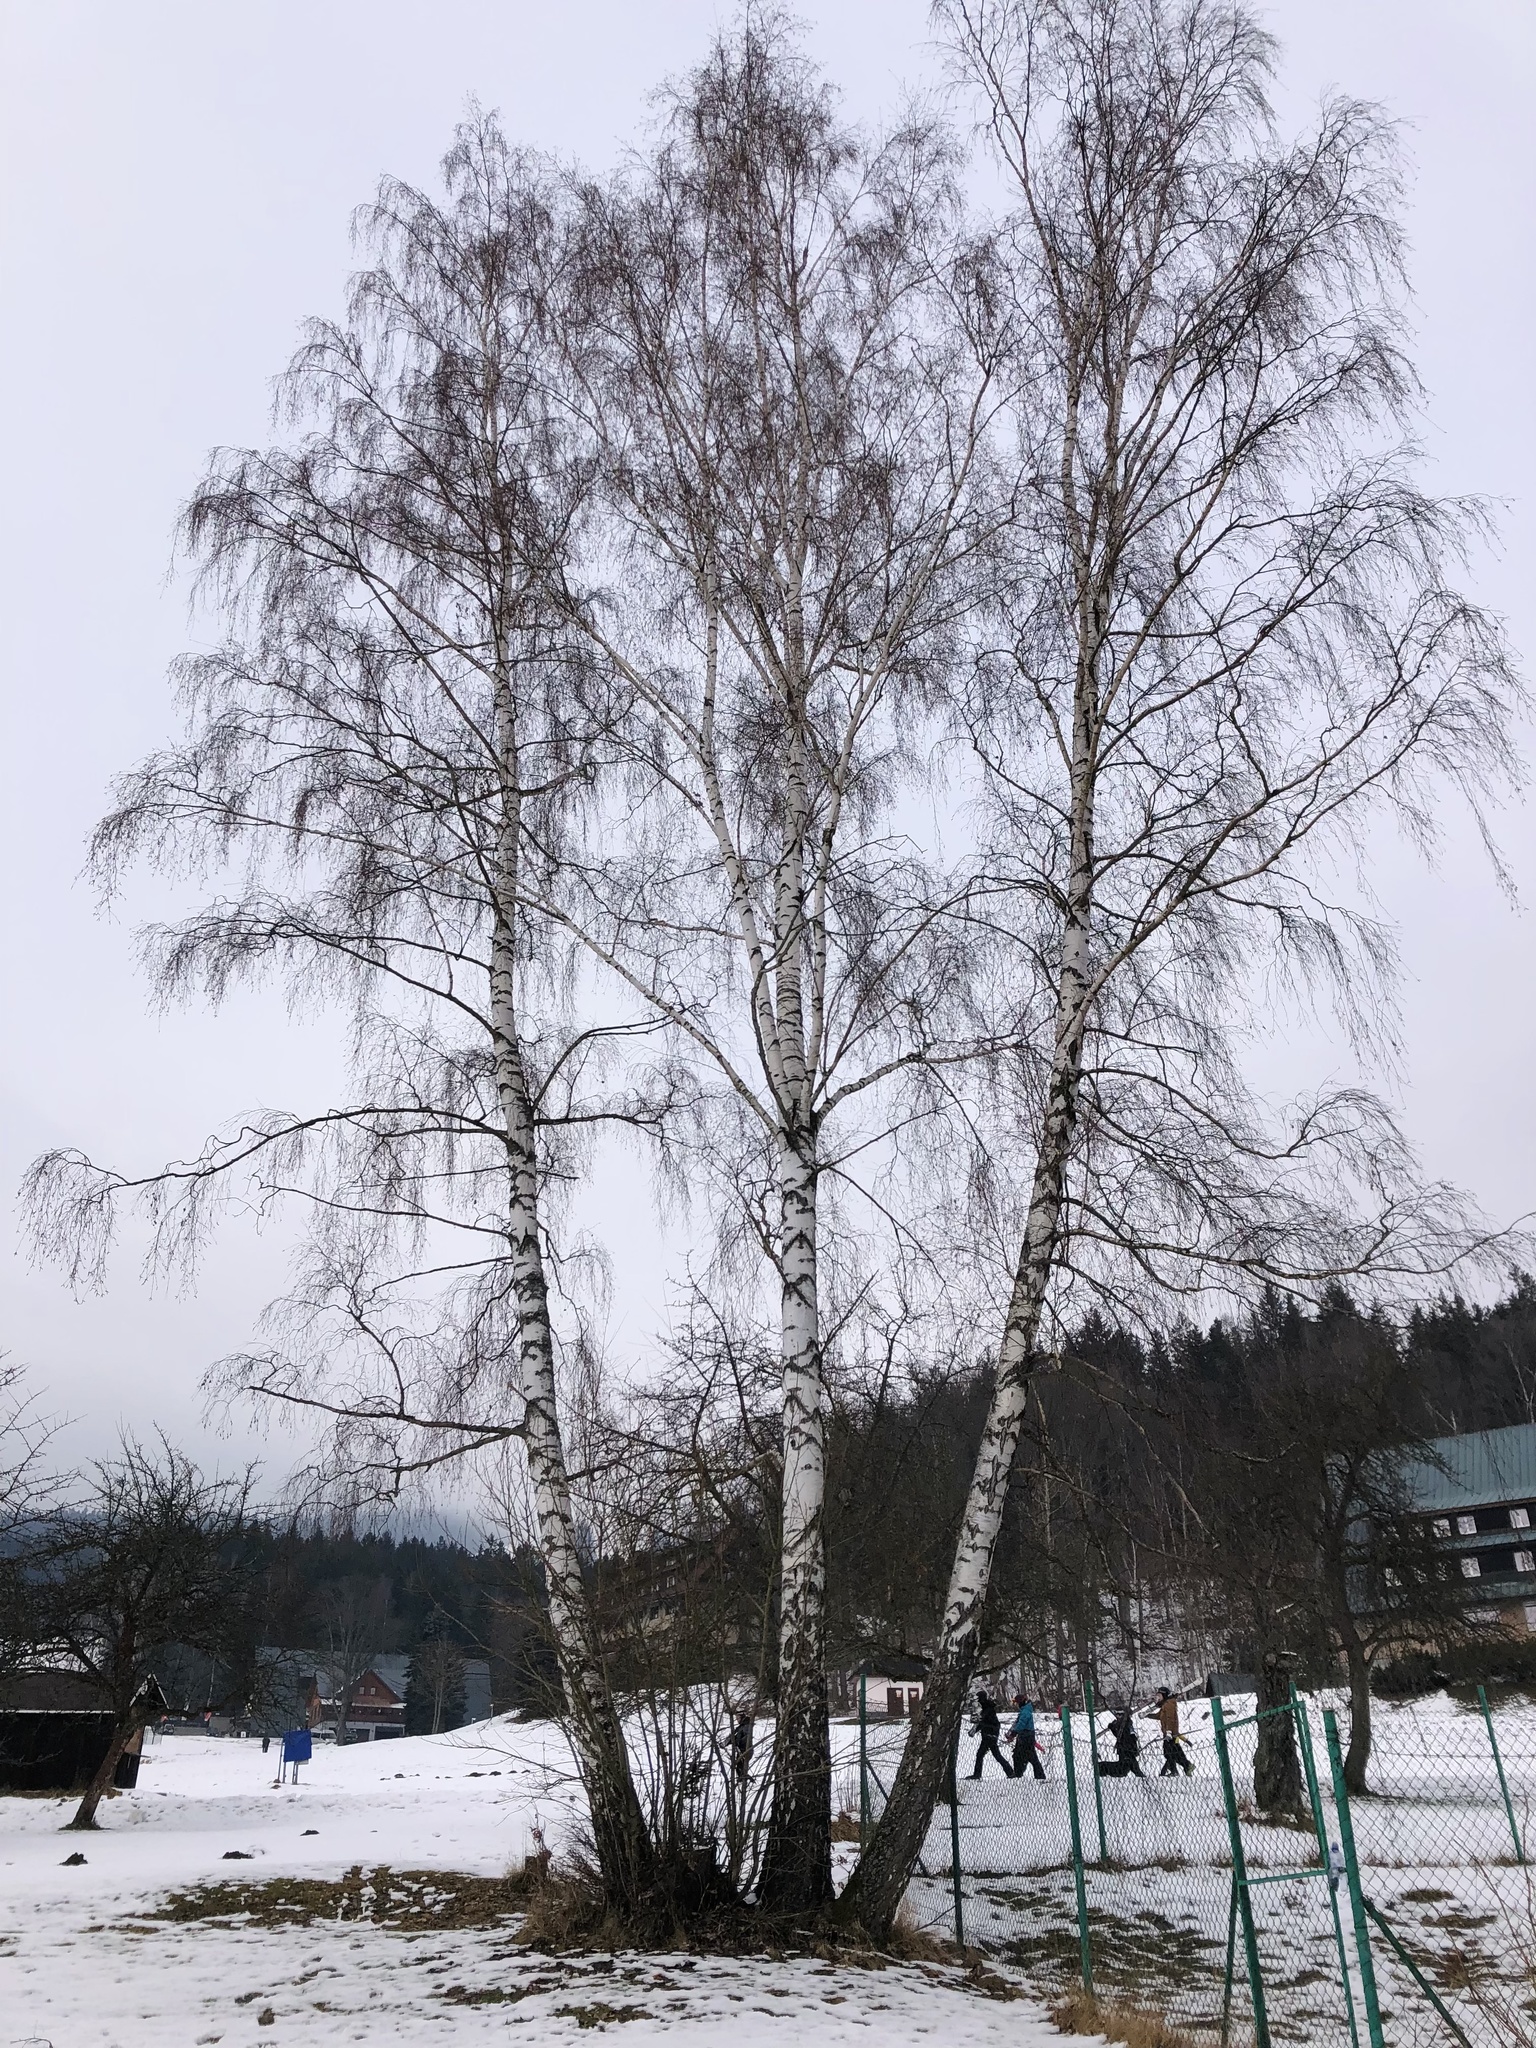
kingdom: Plantae
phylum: Tracheophyta
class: Magnoliopsida
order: Fagales
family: Betulaceae
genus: Betula
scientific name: Betula pendula
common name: Silver birch
